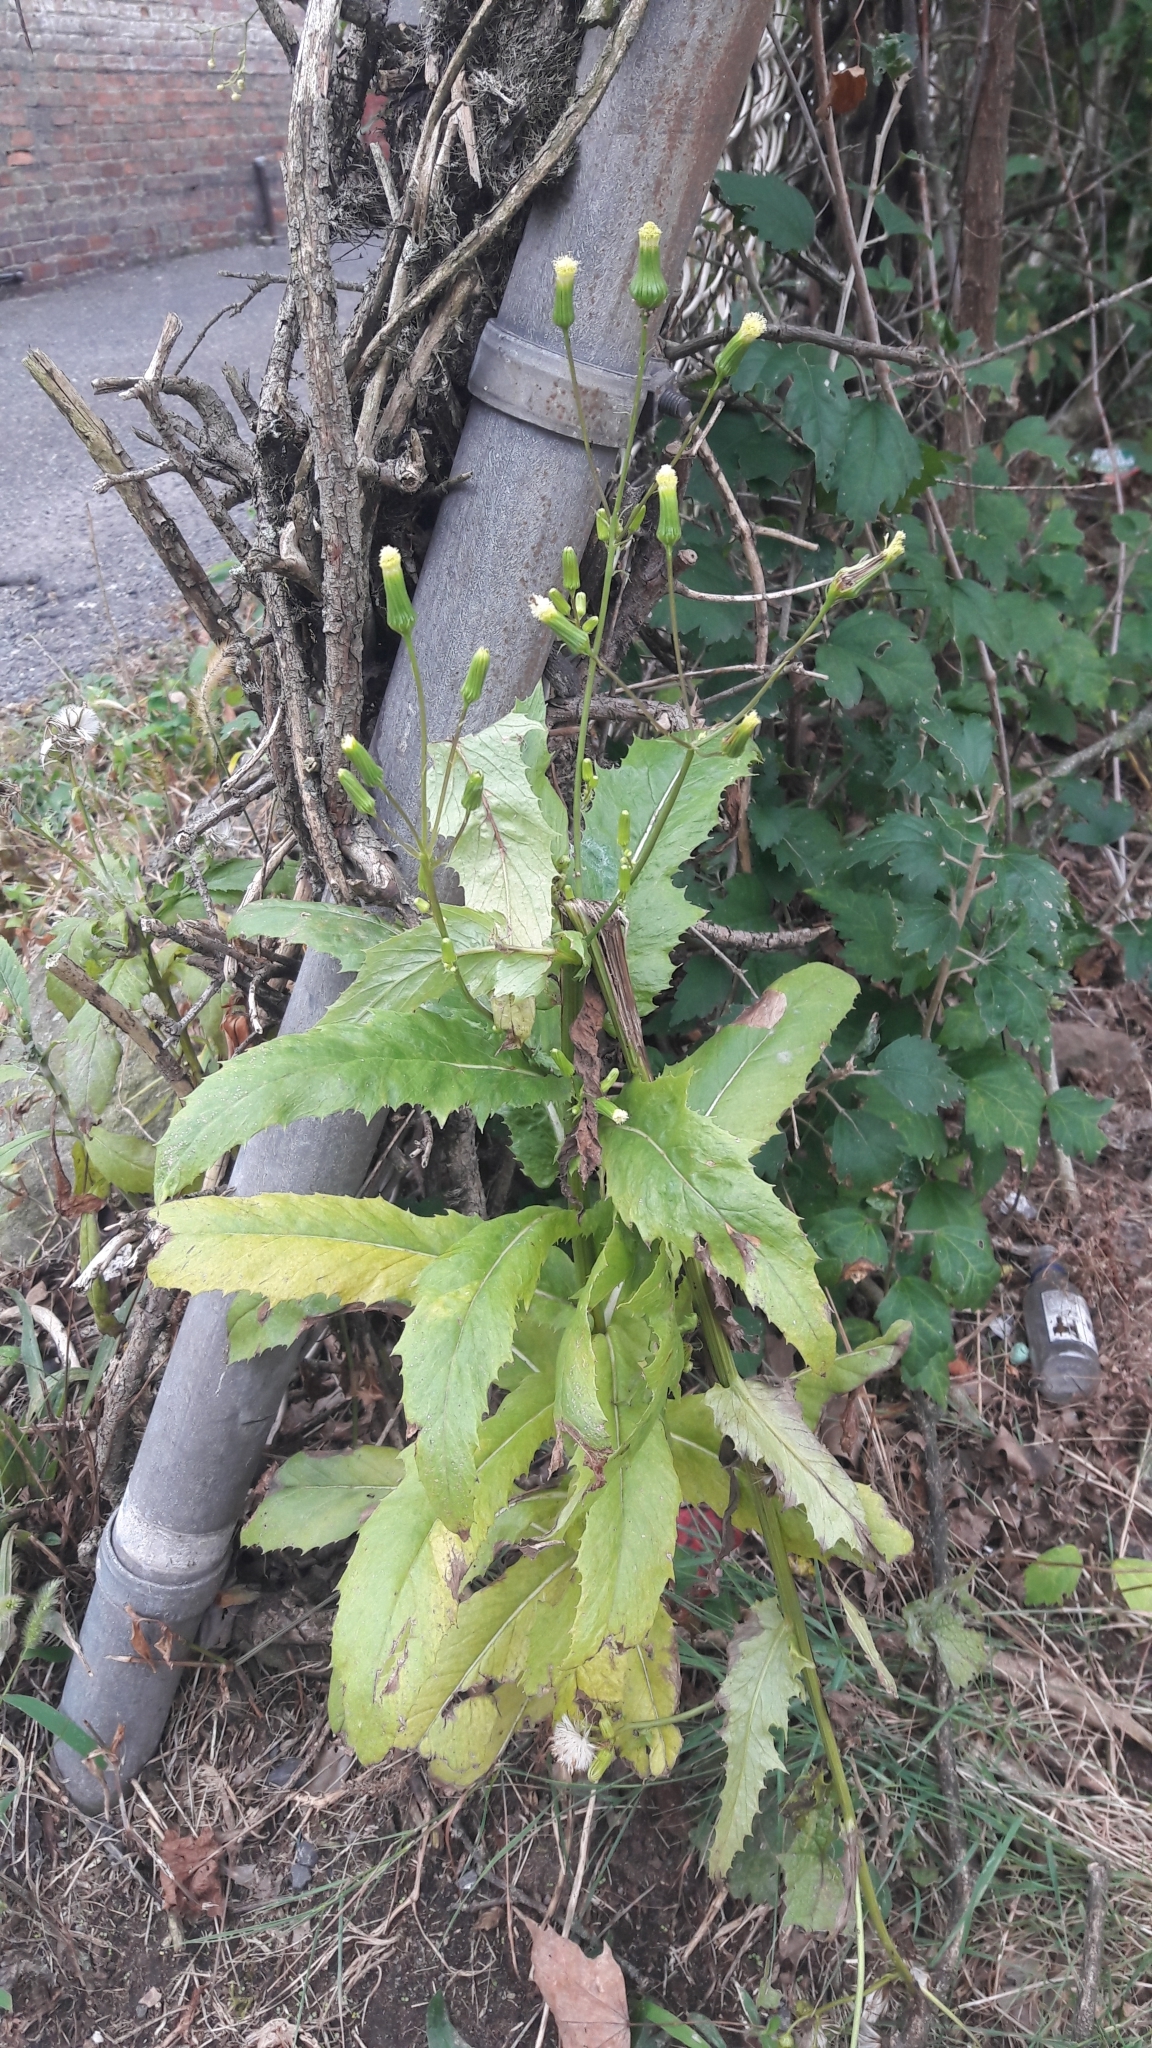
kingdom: Plantae
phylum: Tracheophyta
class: Magnoliopsida
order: Asterales
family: Asteraceae
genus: Erechtites
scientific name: Erechtites hieraciifolius
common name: American burnweed
